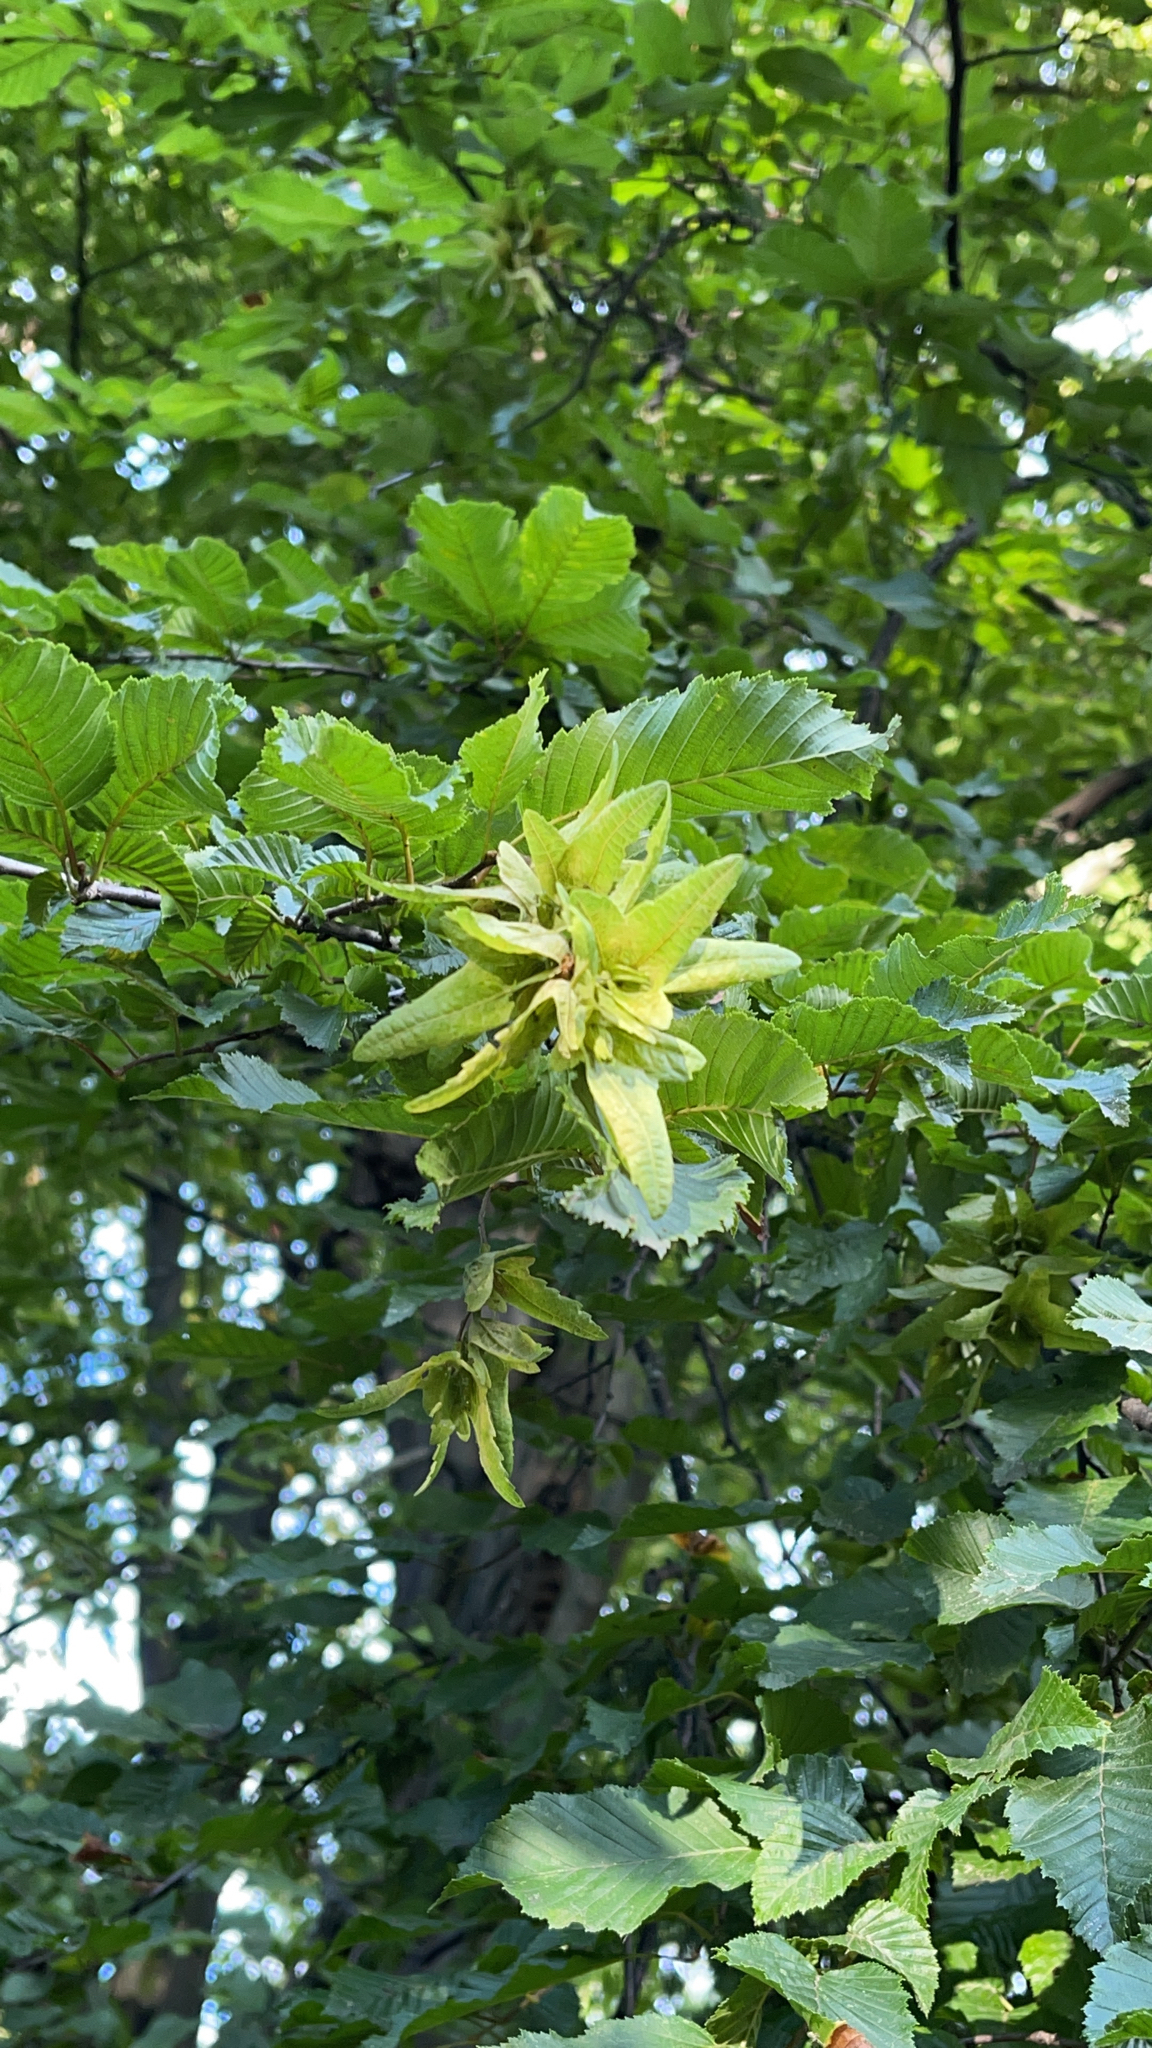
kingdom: Plantae
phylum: Tracheophyta
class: Magnoliopsida
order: Fagales
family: Betulaceae
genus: Carpinus
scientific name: Carpinus betulus
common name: Hornbeam
